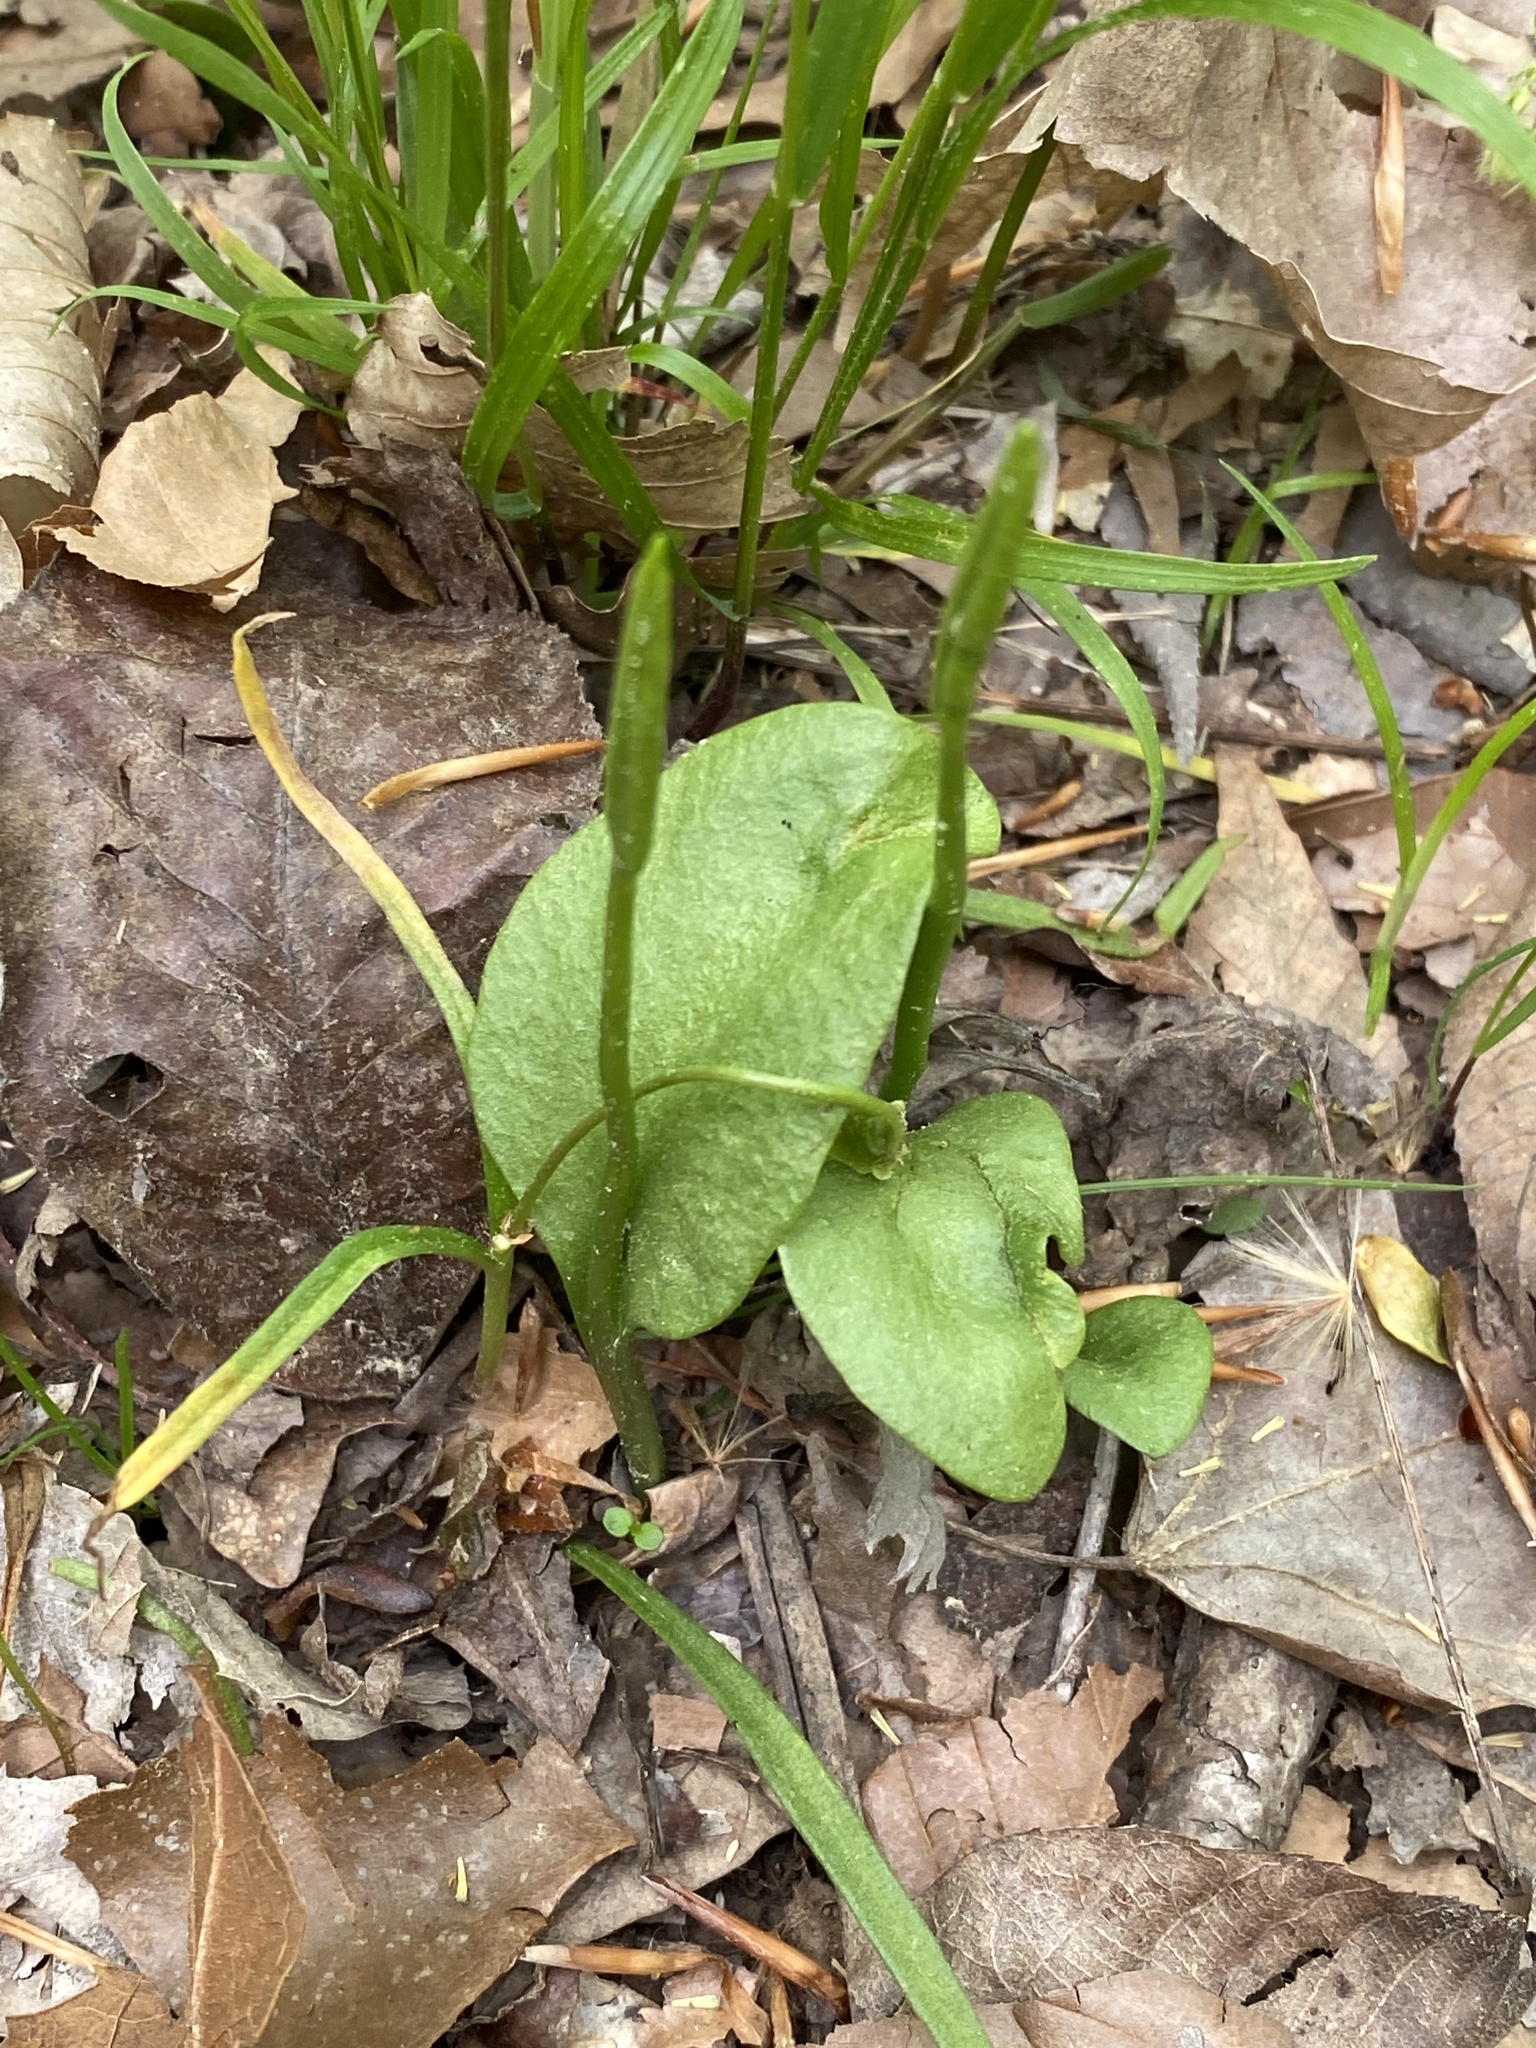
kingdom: Plantae
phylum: Tracheophyta
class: Polypodiopsida
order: Ophioglossales
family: Ophioglossaceae
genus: Ophioglossum
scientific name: Ophioglossum vulgatum
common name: Adder's-tongue
